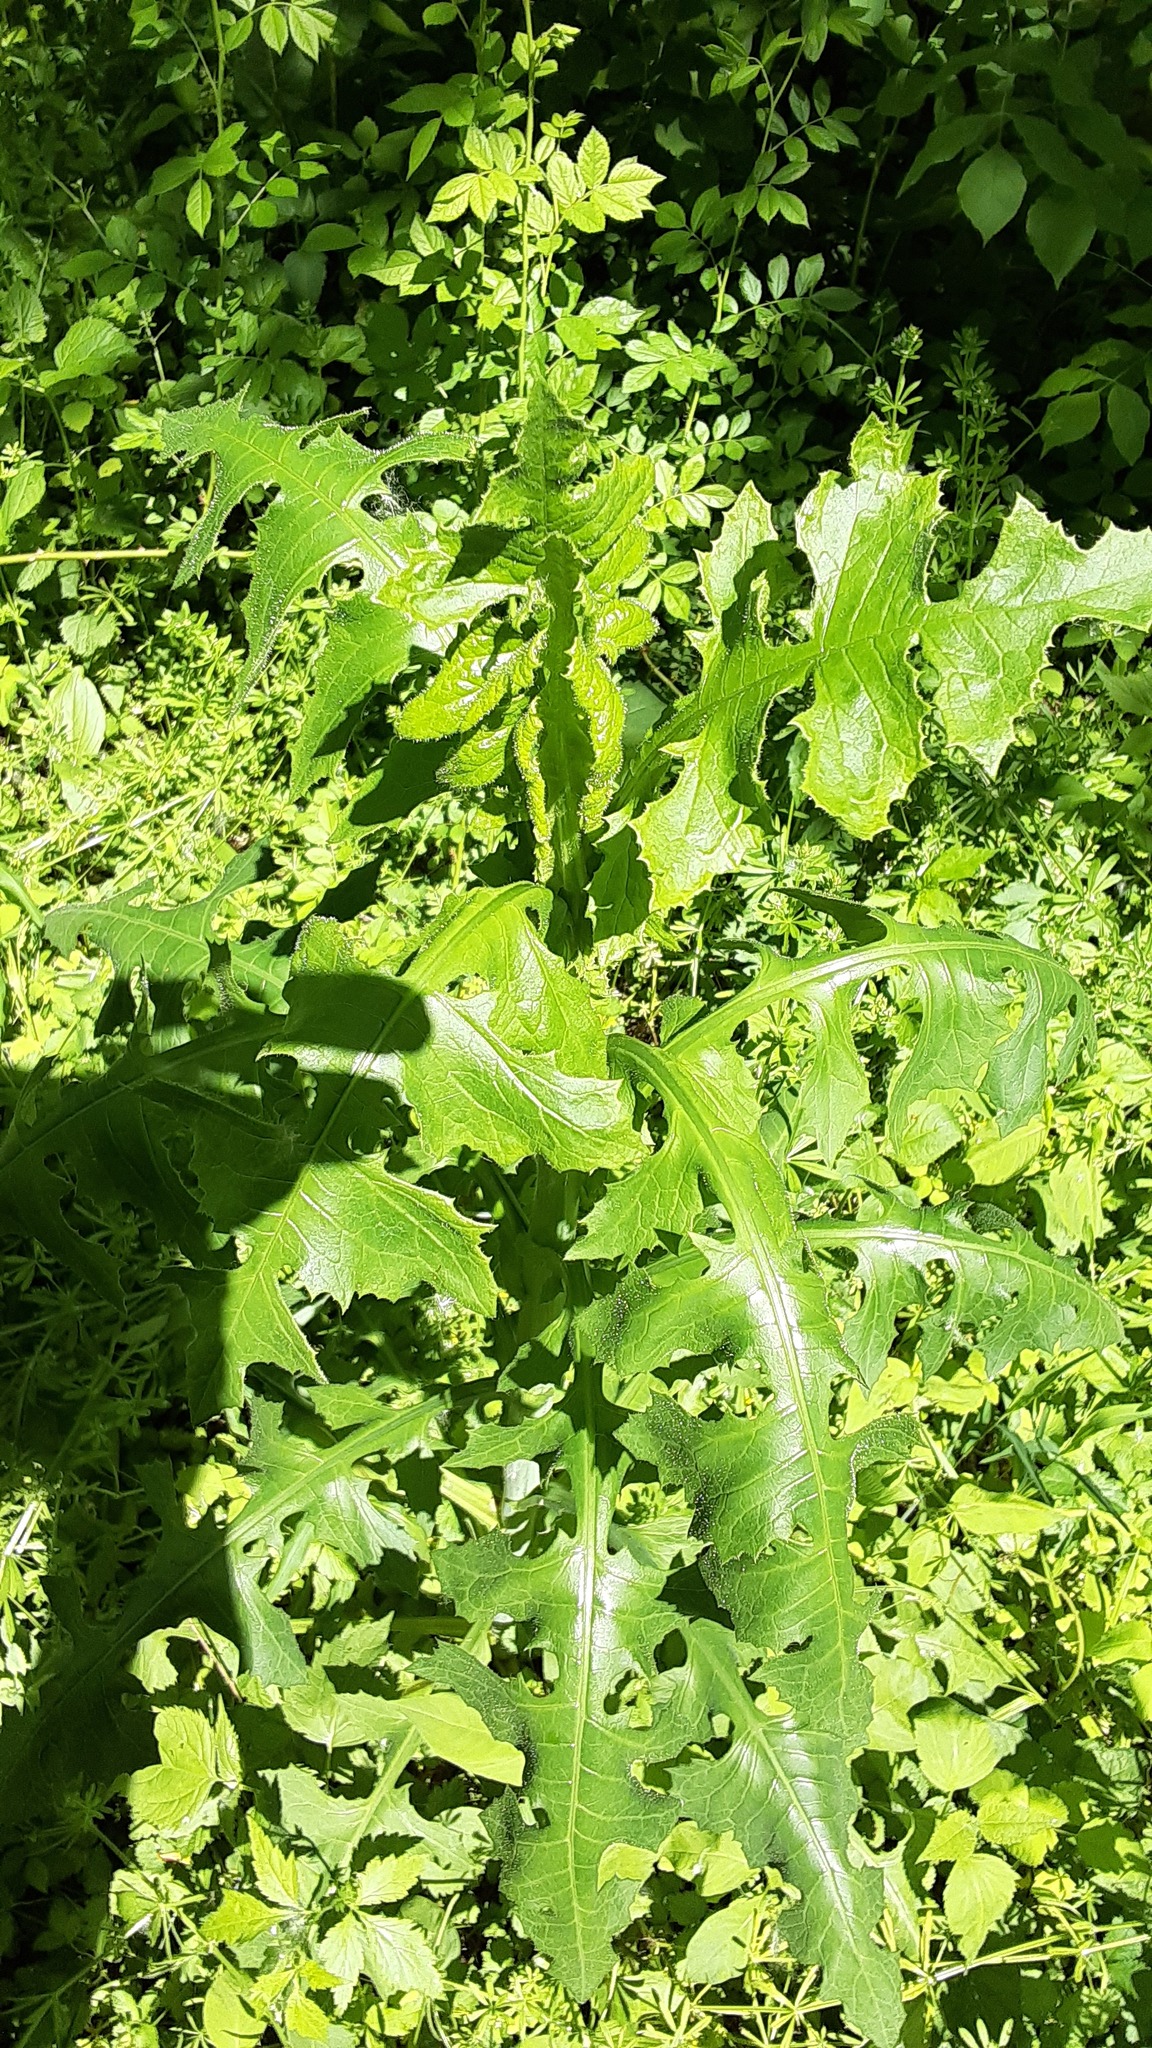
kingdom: Plantae
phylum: Tracheophyta
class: Magnoliopsida
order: Asterales
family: Asteraceae
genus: Lactuca
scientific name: Lactuca biennis
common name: Blue wood lettuce
